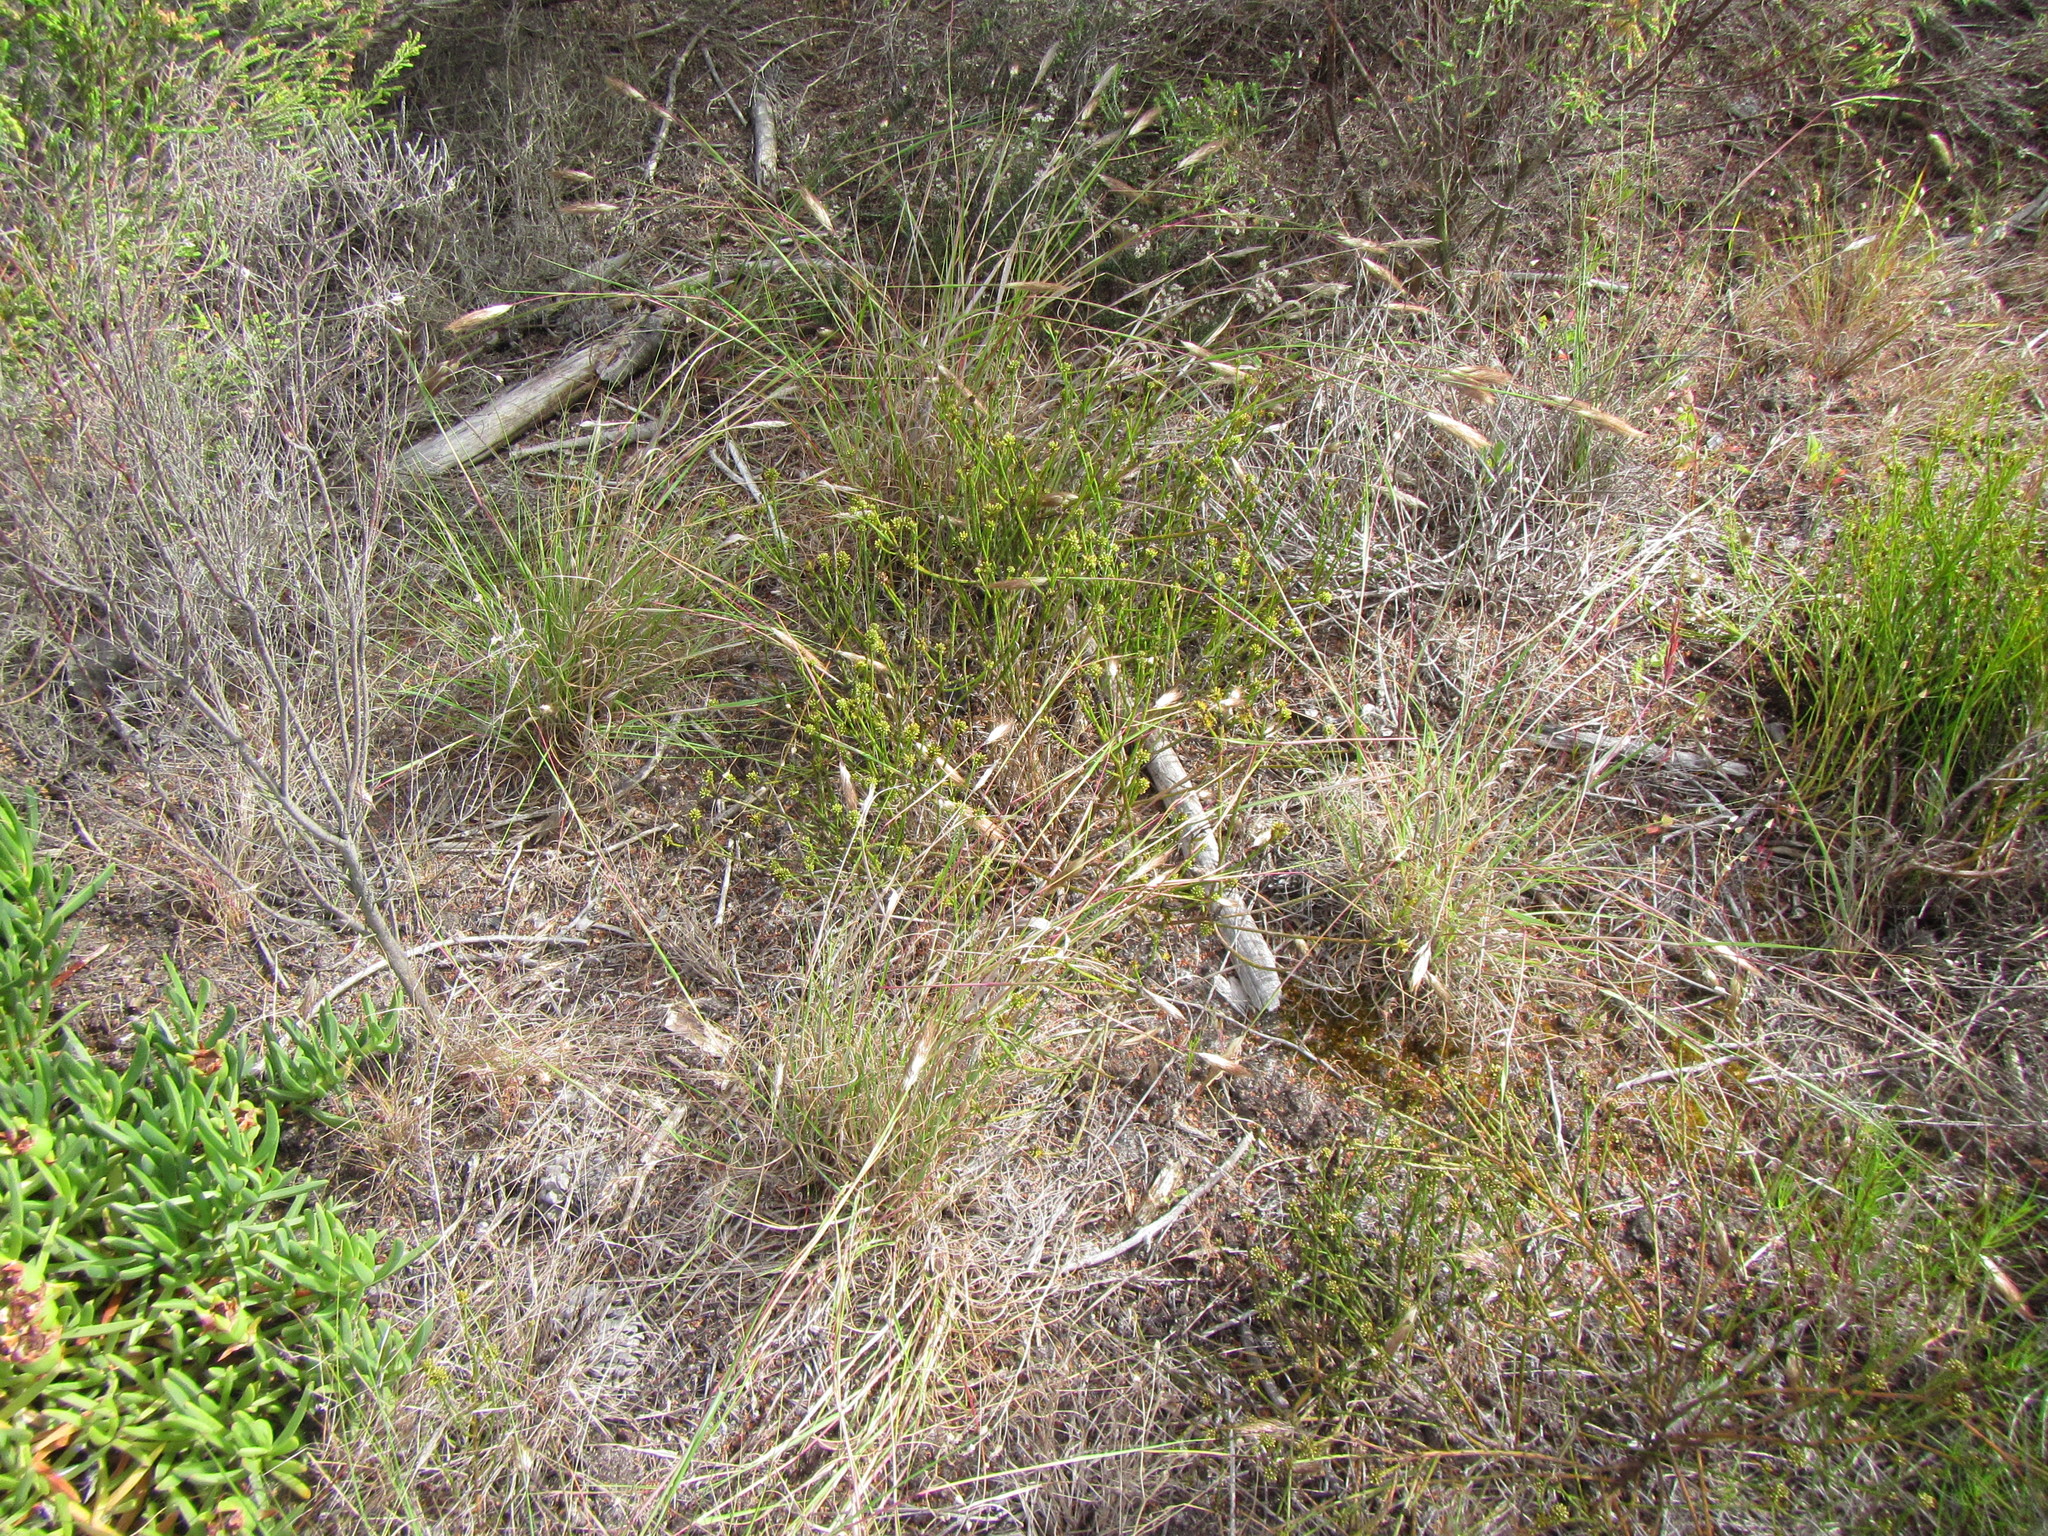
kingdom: Plantae
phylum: Tracheophyta
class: Liliopsida
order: Poales
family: Poaceae
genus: Pentameris
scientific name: Pentameris curvifolia
